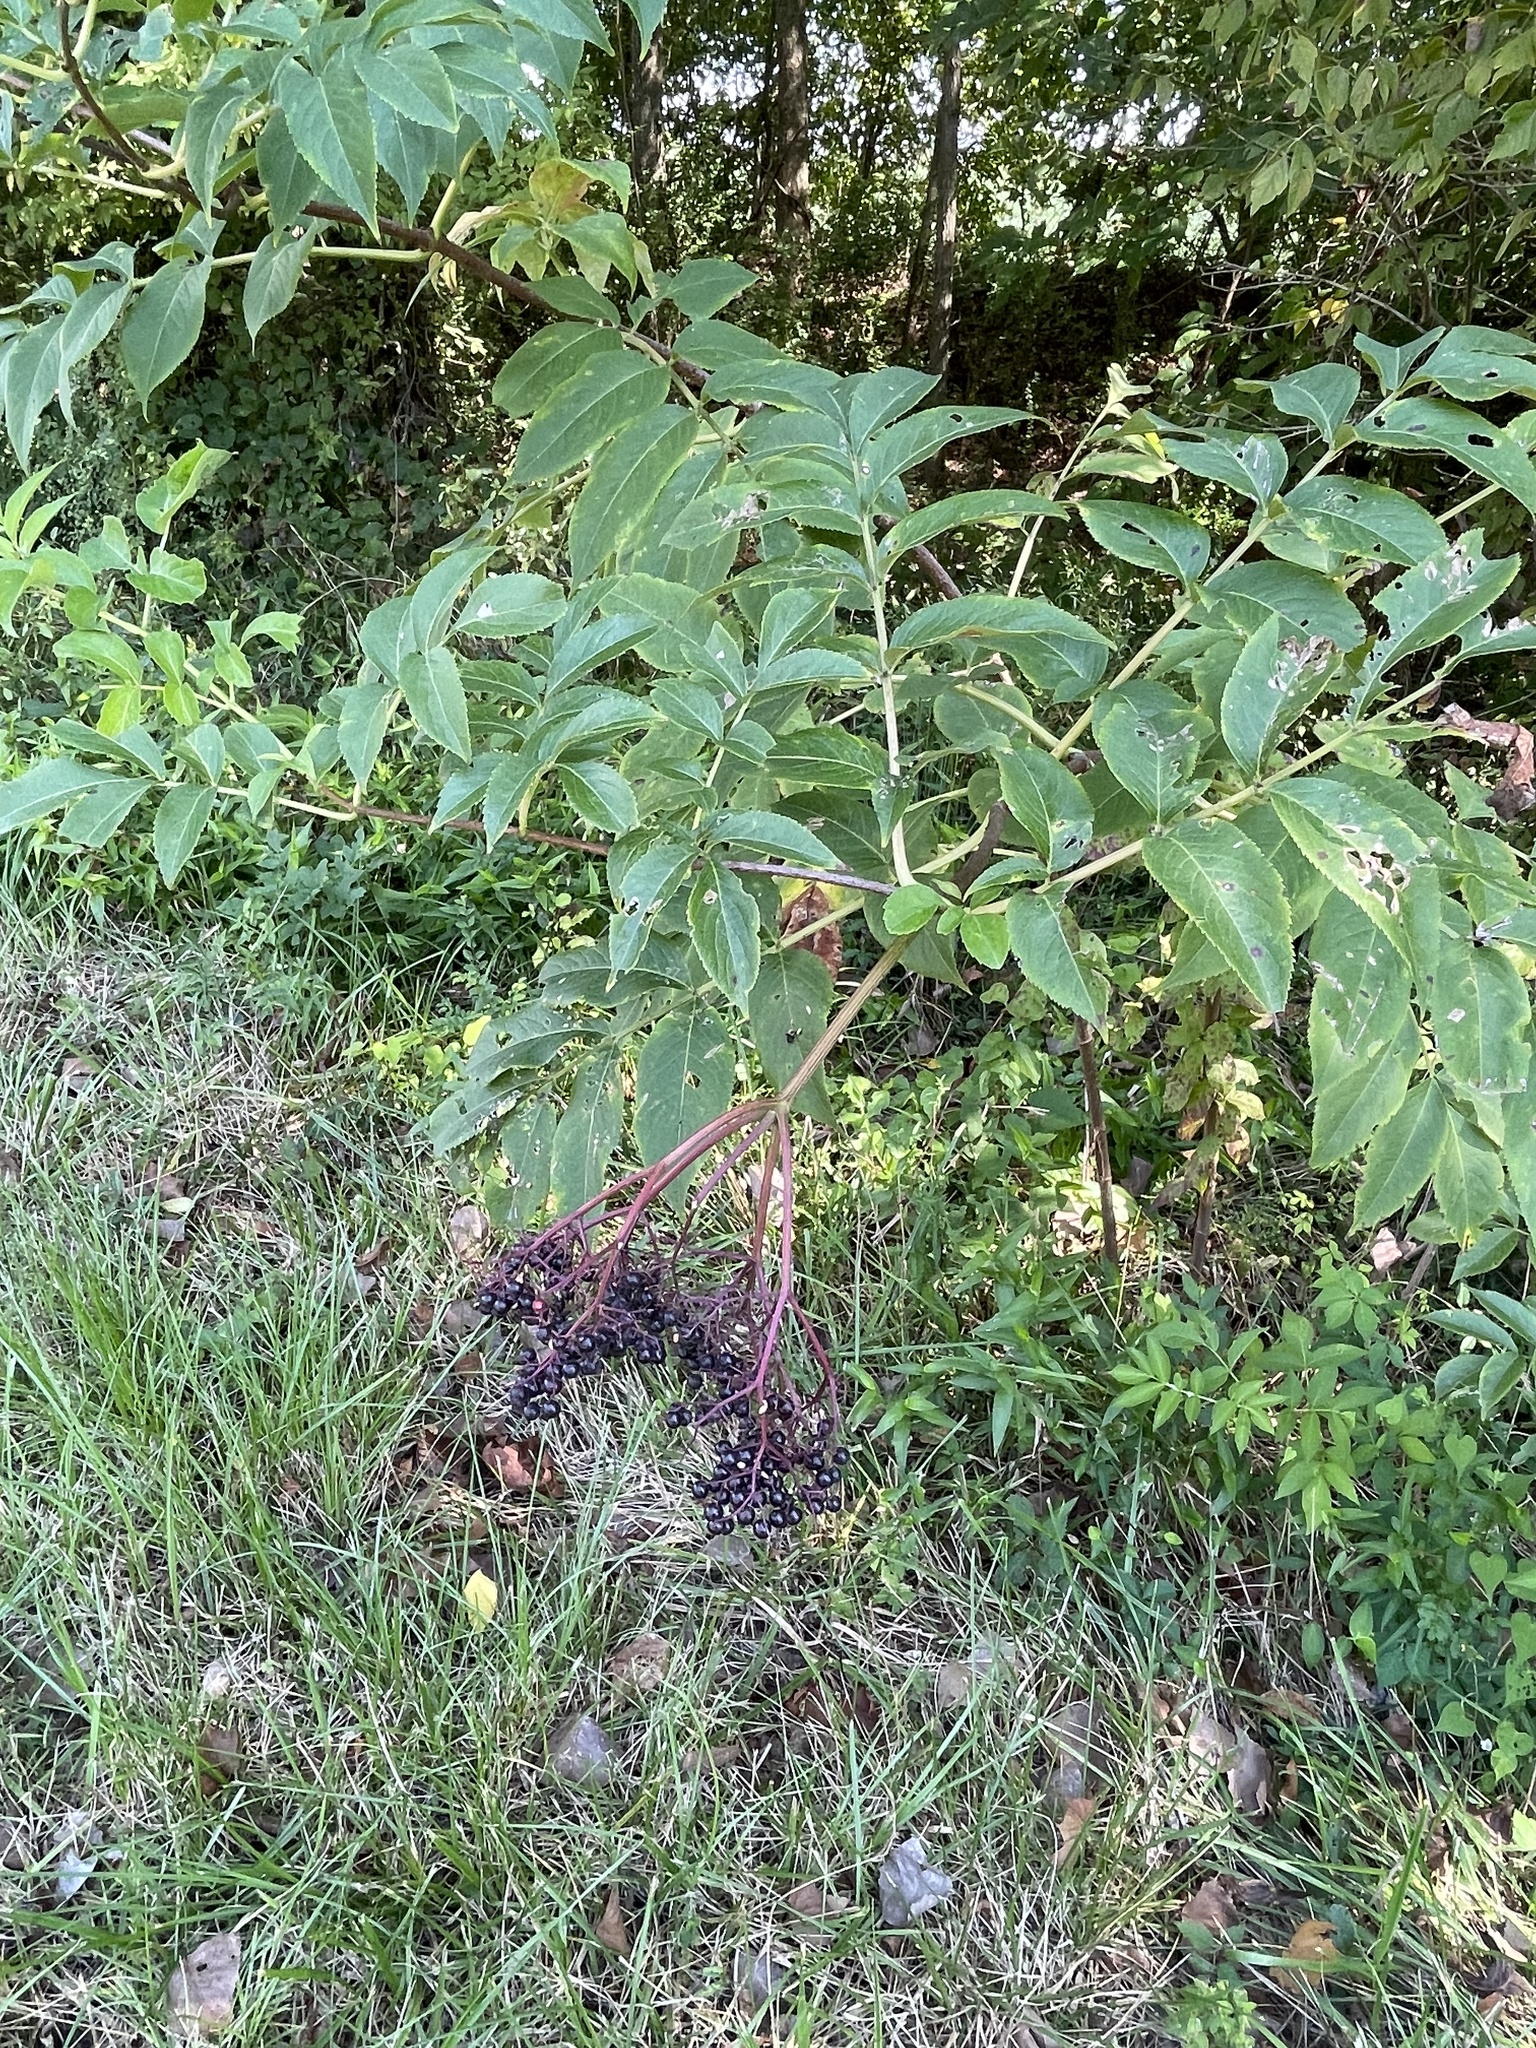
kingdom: Plantae
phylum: Tracheophyta
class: Magnoliopsida
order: Dipsacales
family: Viburnaceae
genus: Sambucus
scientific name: Sambucus canadensis
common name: American elder
